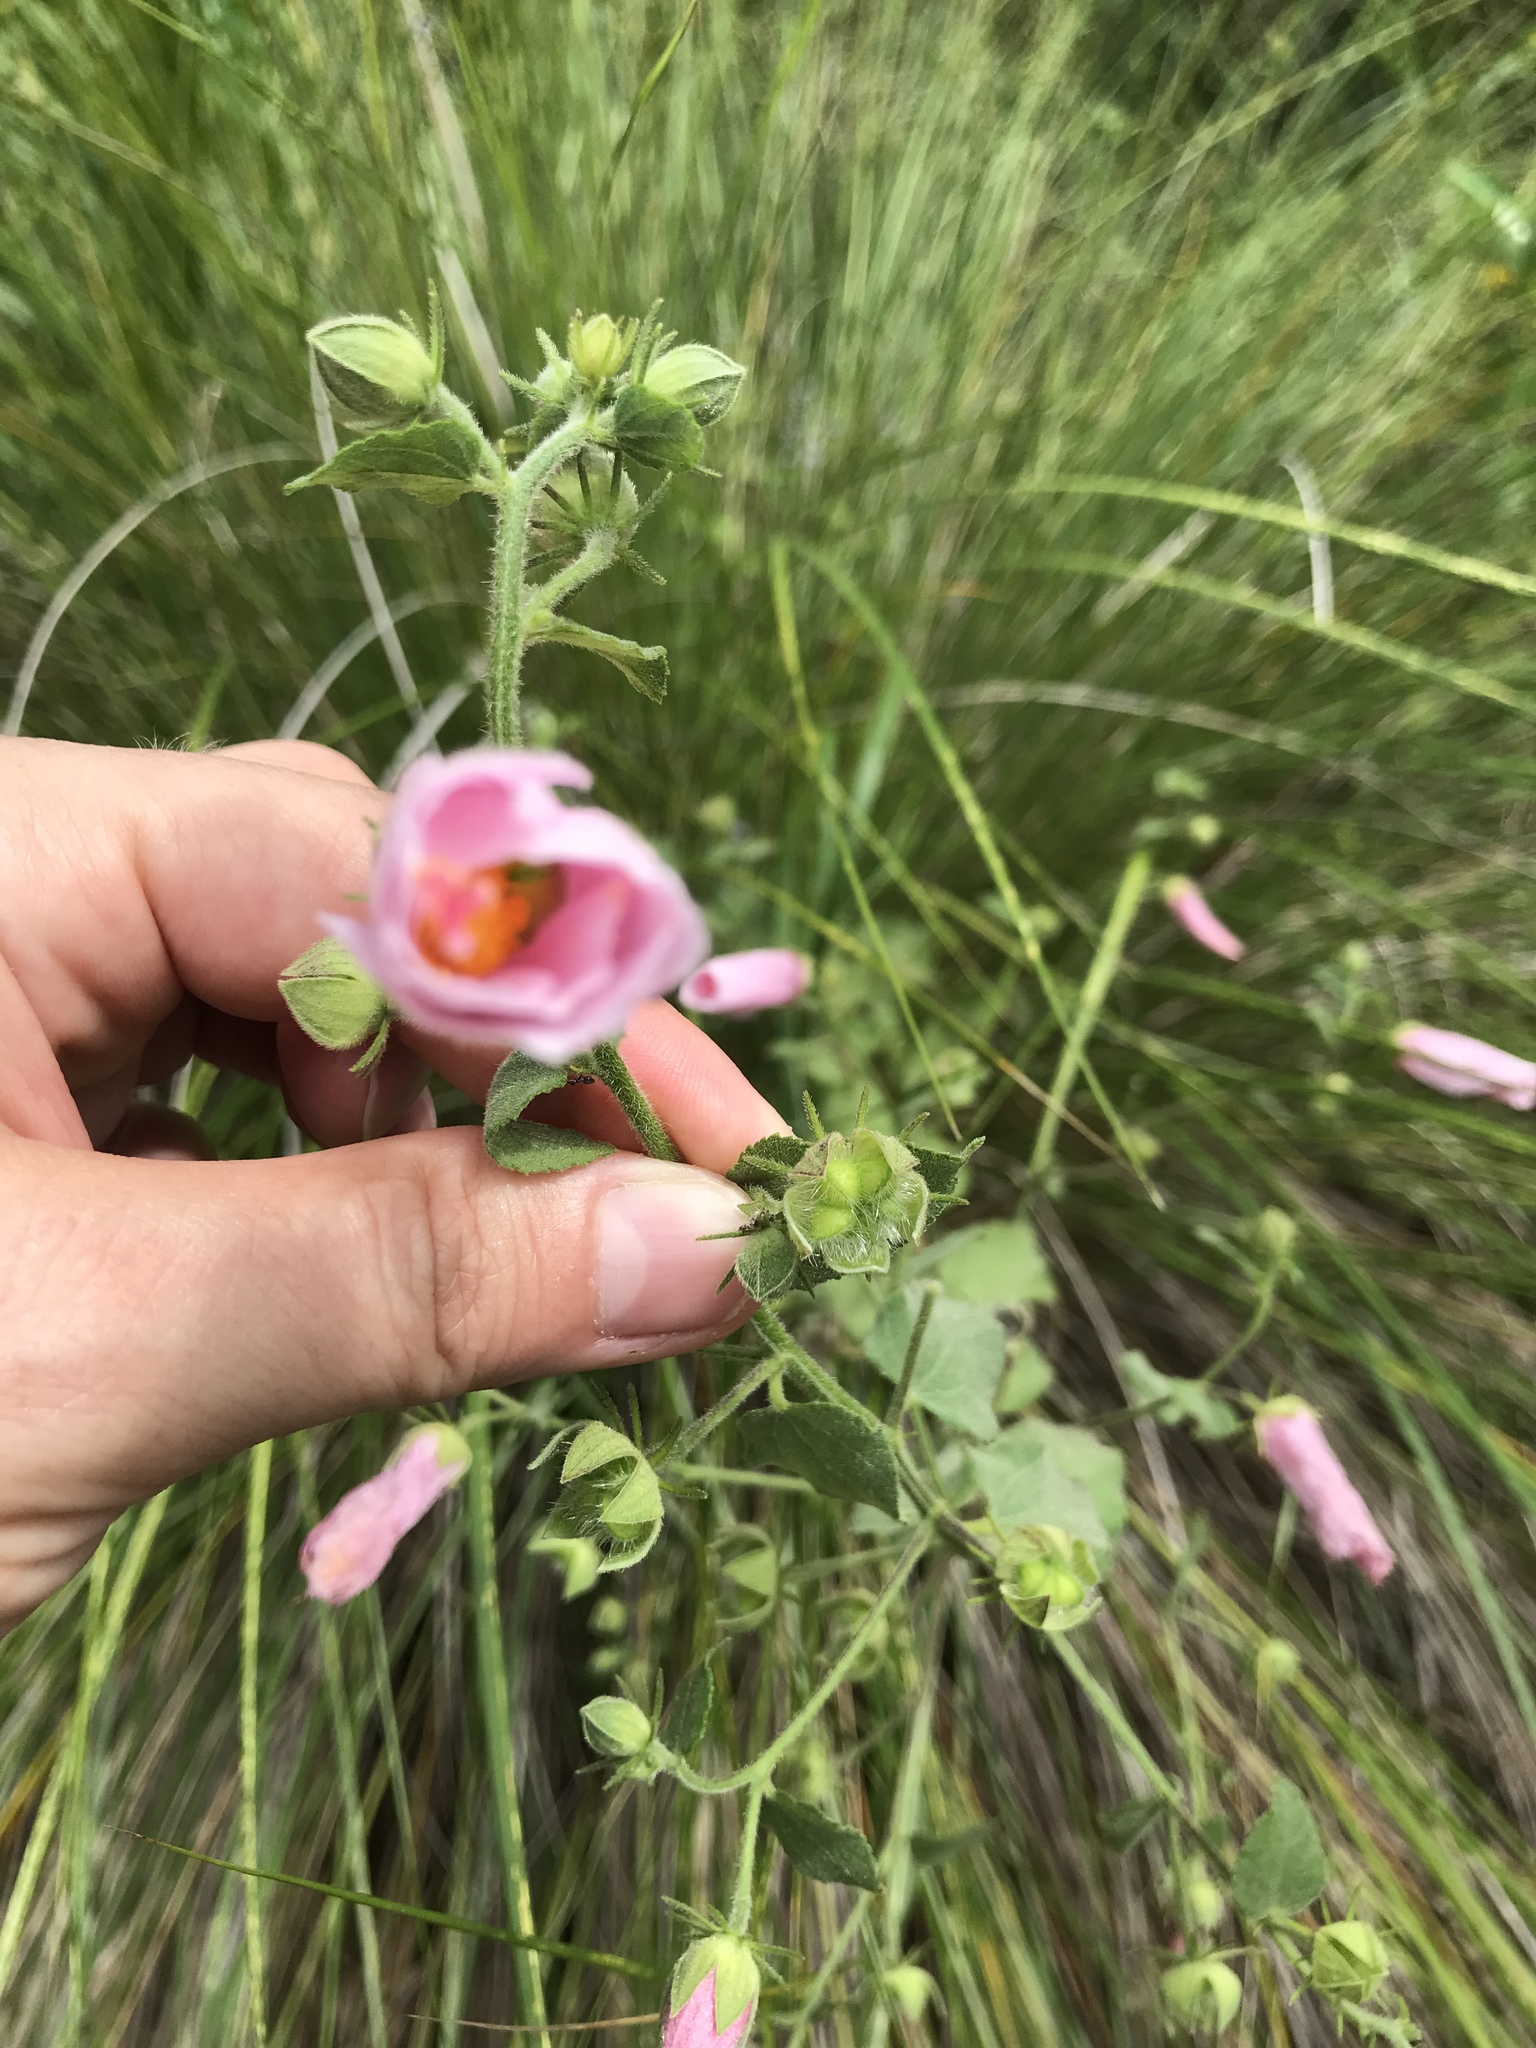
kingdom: Plantae
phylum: Tracheophyta
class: Magnoliopsida
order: Malvales
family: Malvaceae
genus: Kosteletzkya
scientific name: Kosteletzkya pentacarpos
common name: Virginia saltmarsh mallow
